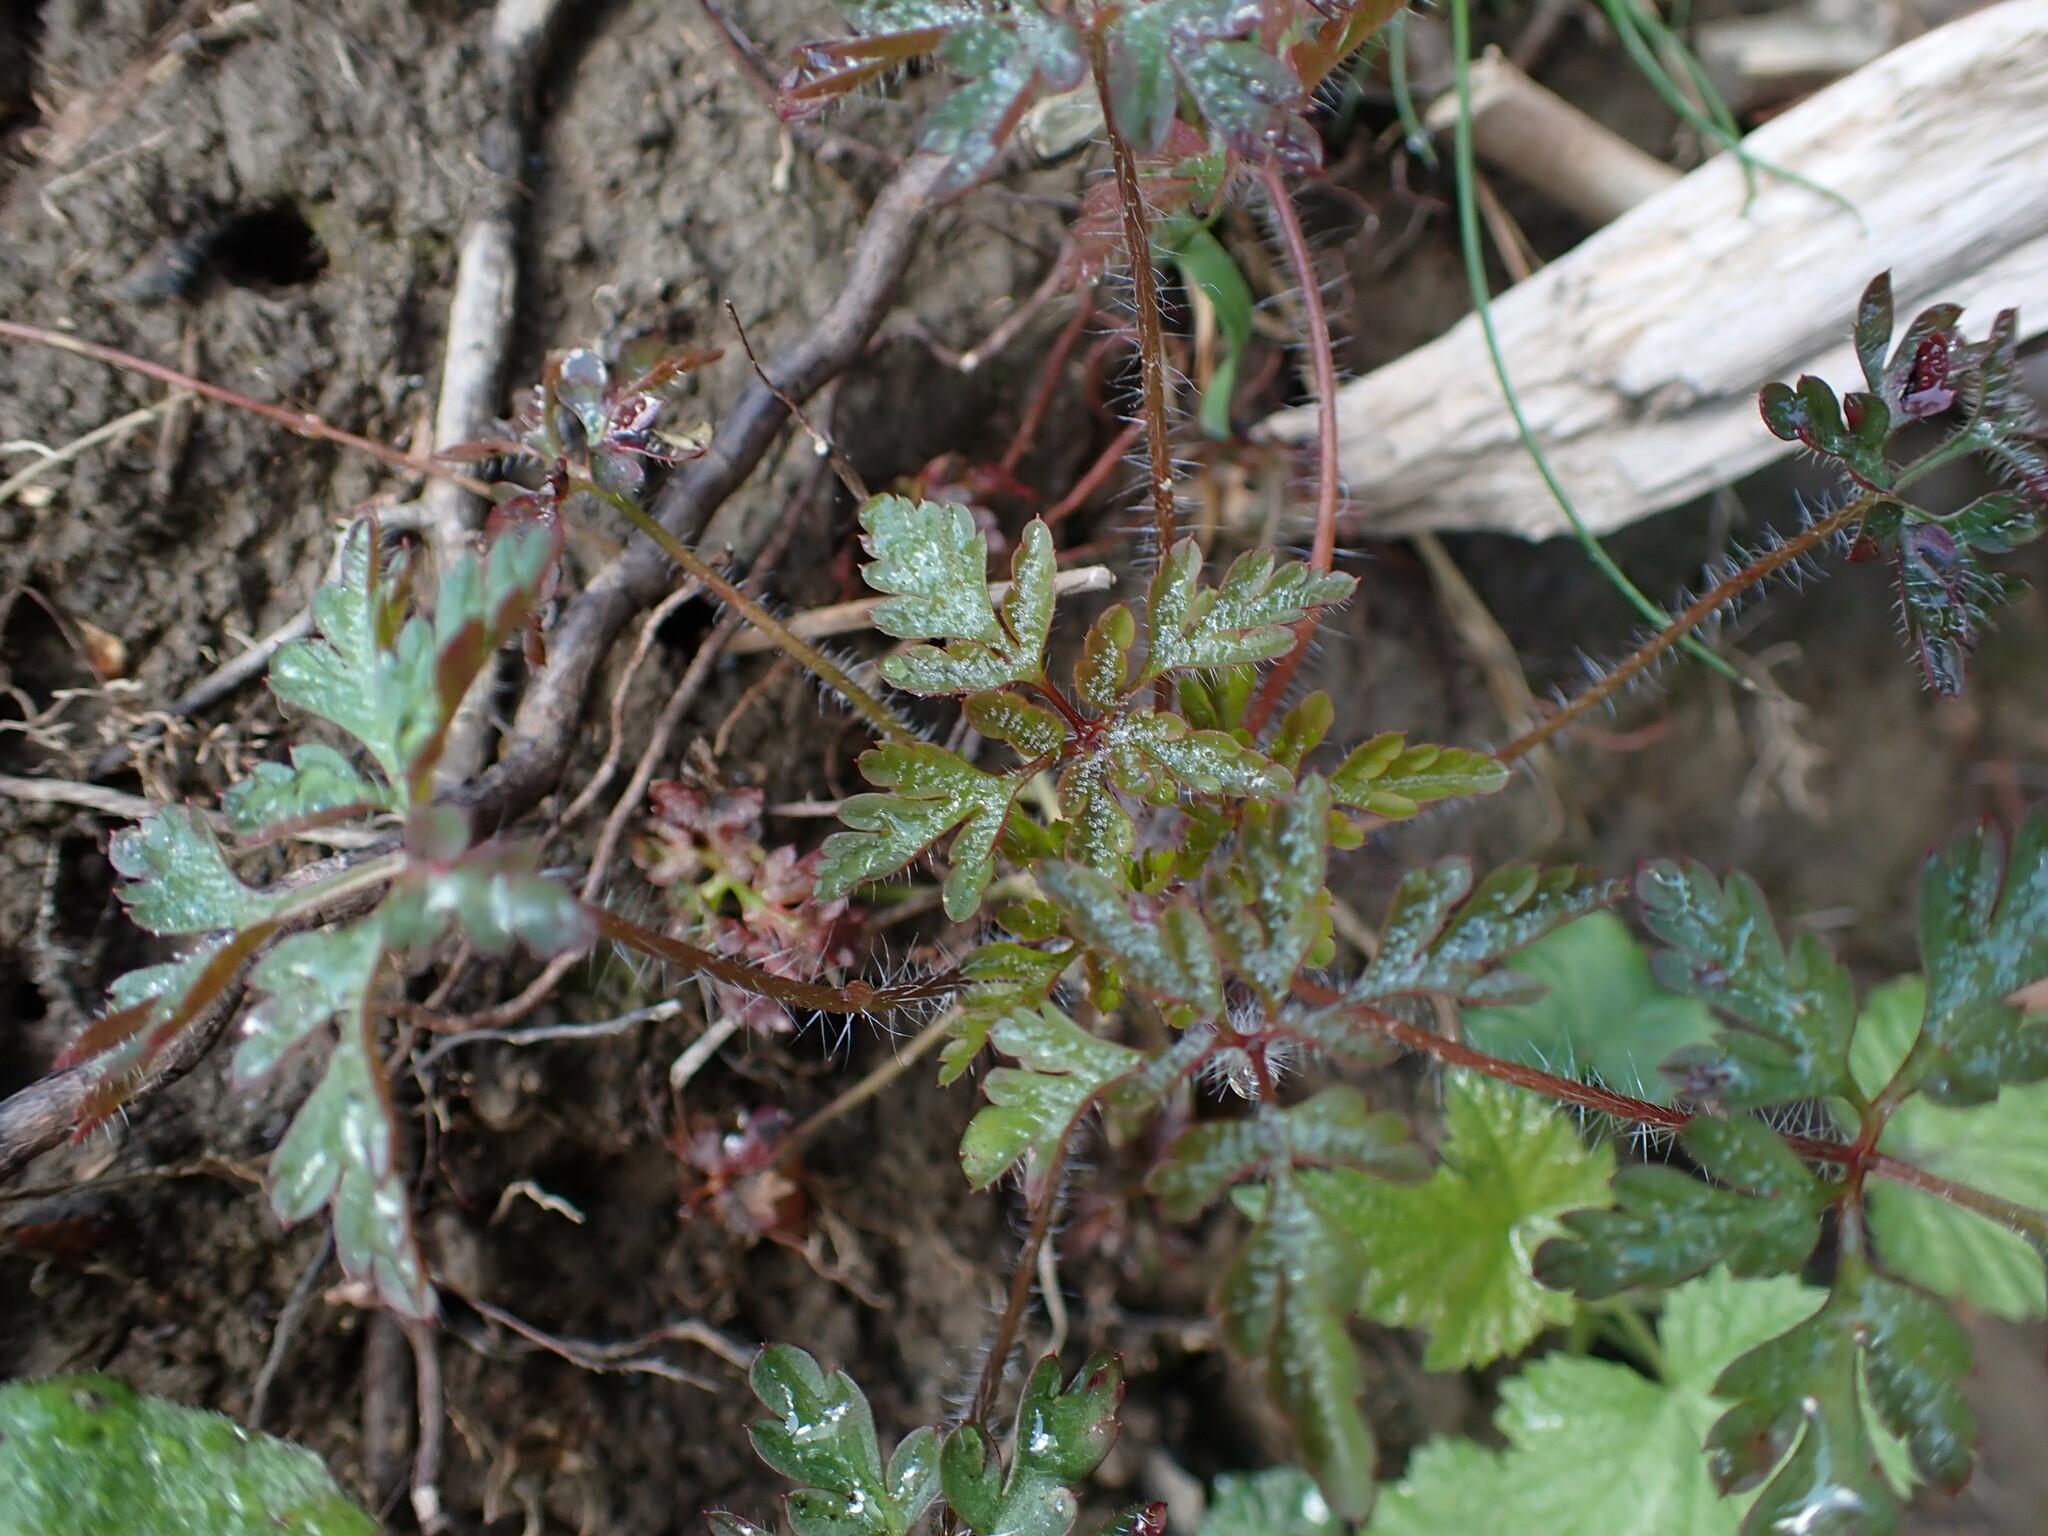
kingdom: Plantae
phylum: Tracheophyta
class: Magnoliopsida
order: Geraniales
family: Geraniaceae
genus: Geranium
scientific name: Geranium robertianum
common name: Herb-robert
